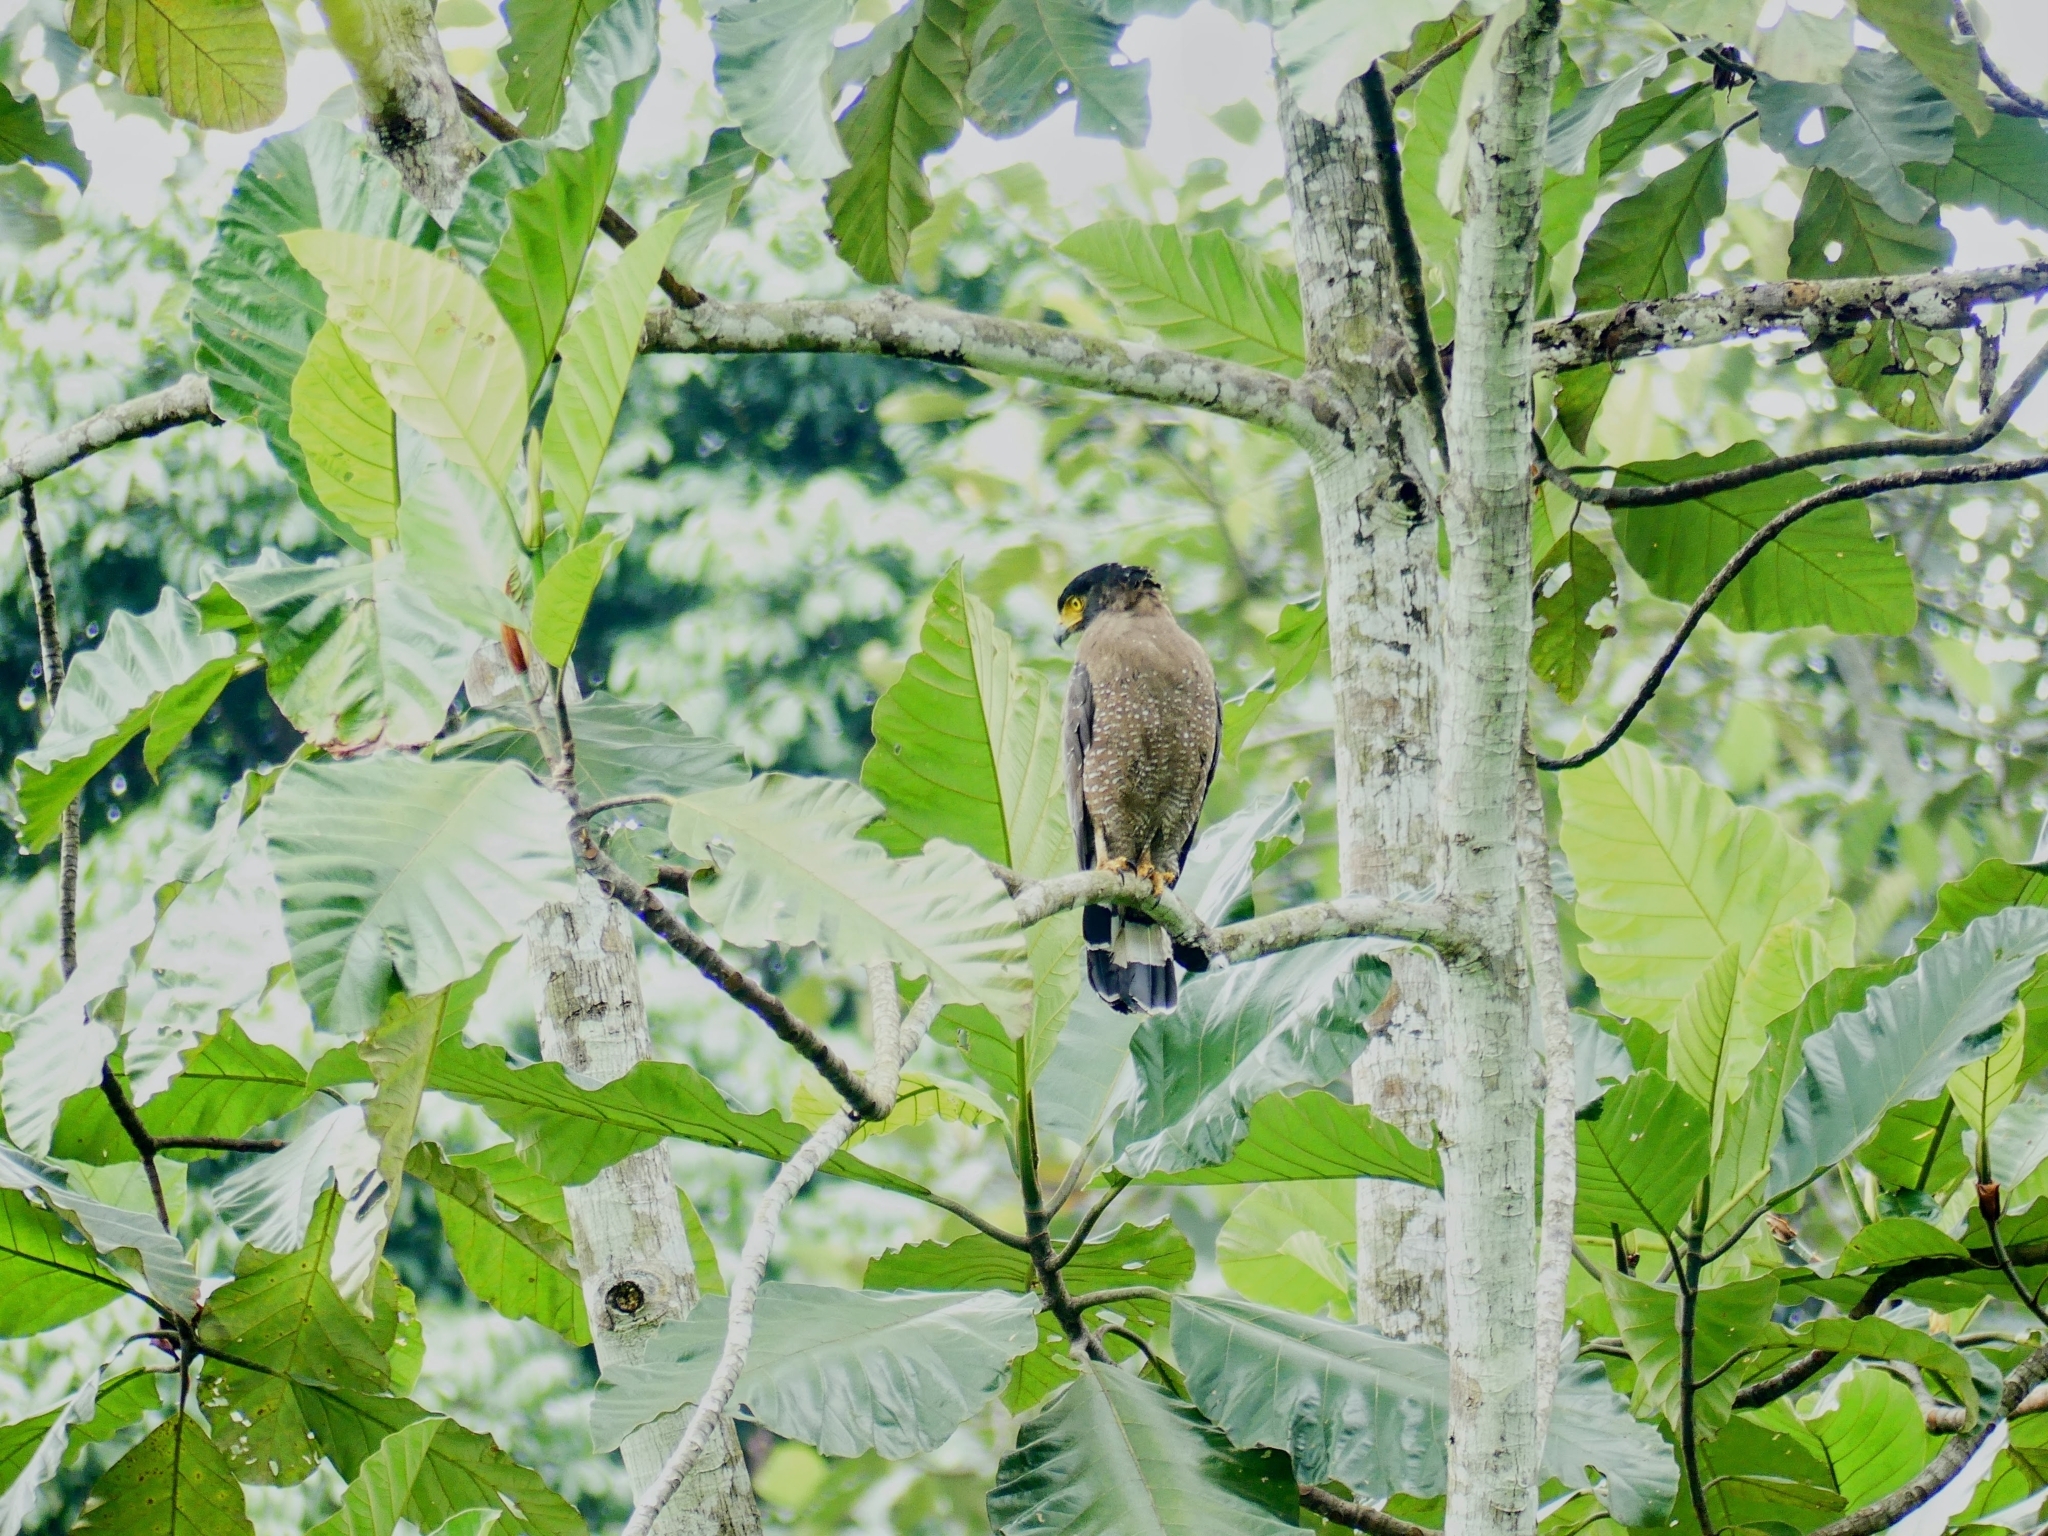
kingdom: Animalia
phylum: Chordata
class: Aves
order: Accipitriformes
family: Accipitridae
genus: Spilornis
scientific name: Spilornis cheela
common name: Crested serpent eagle
